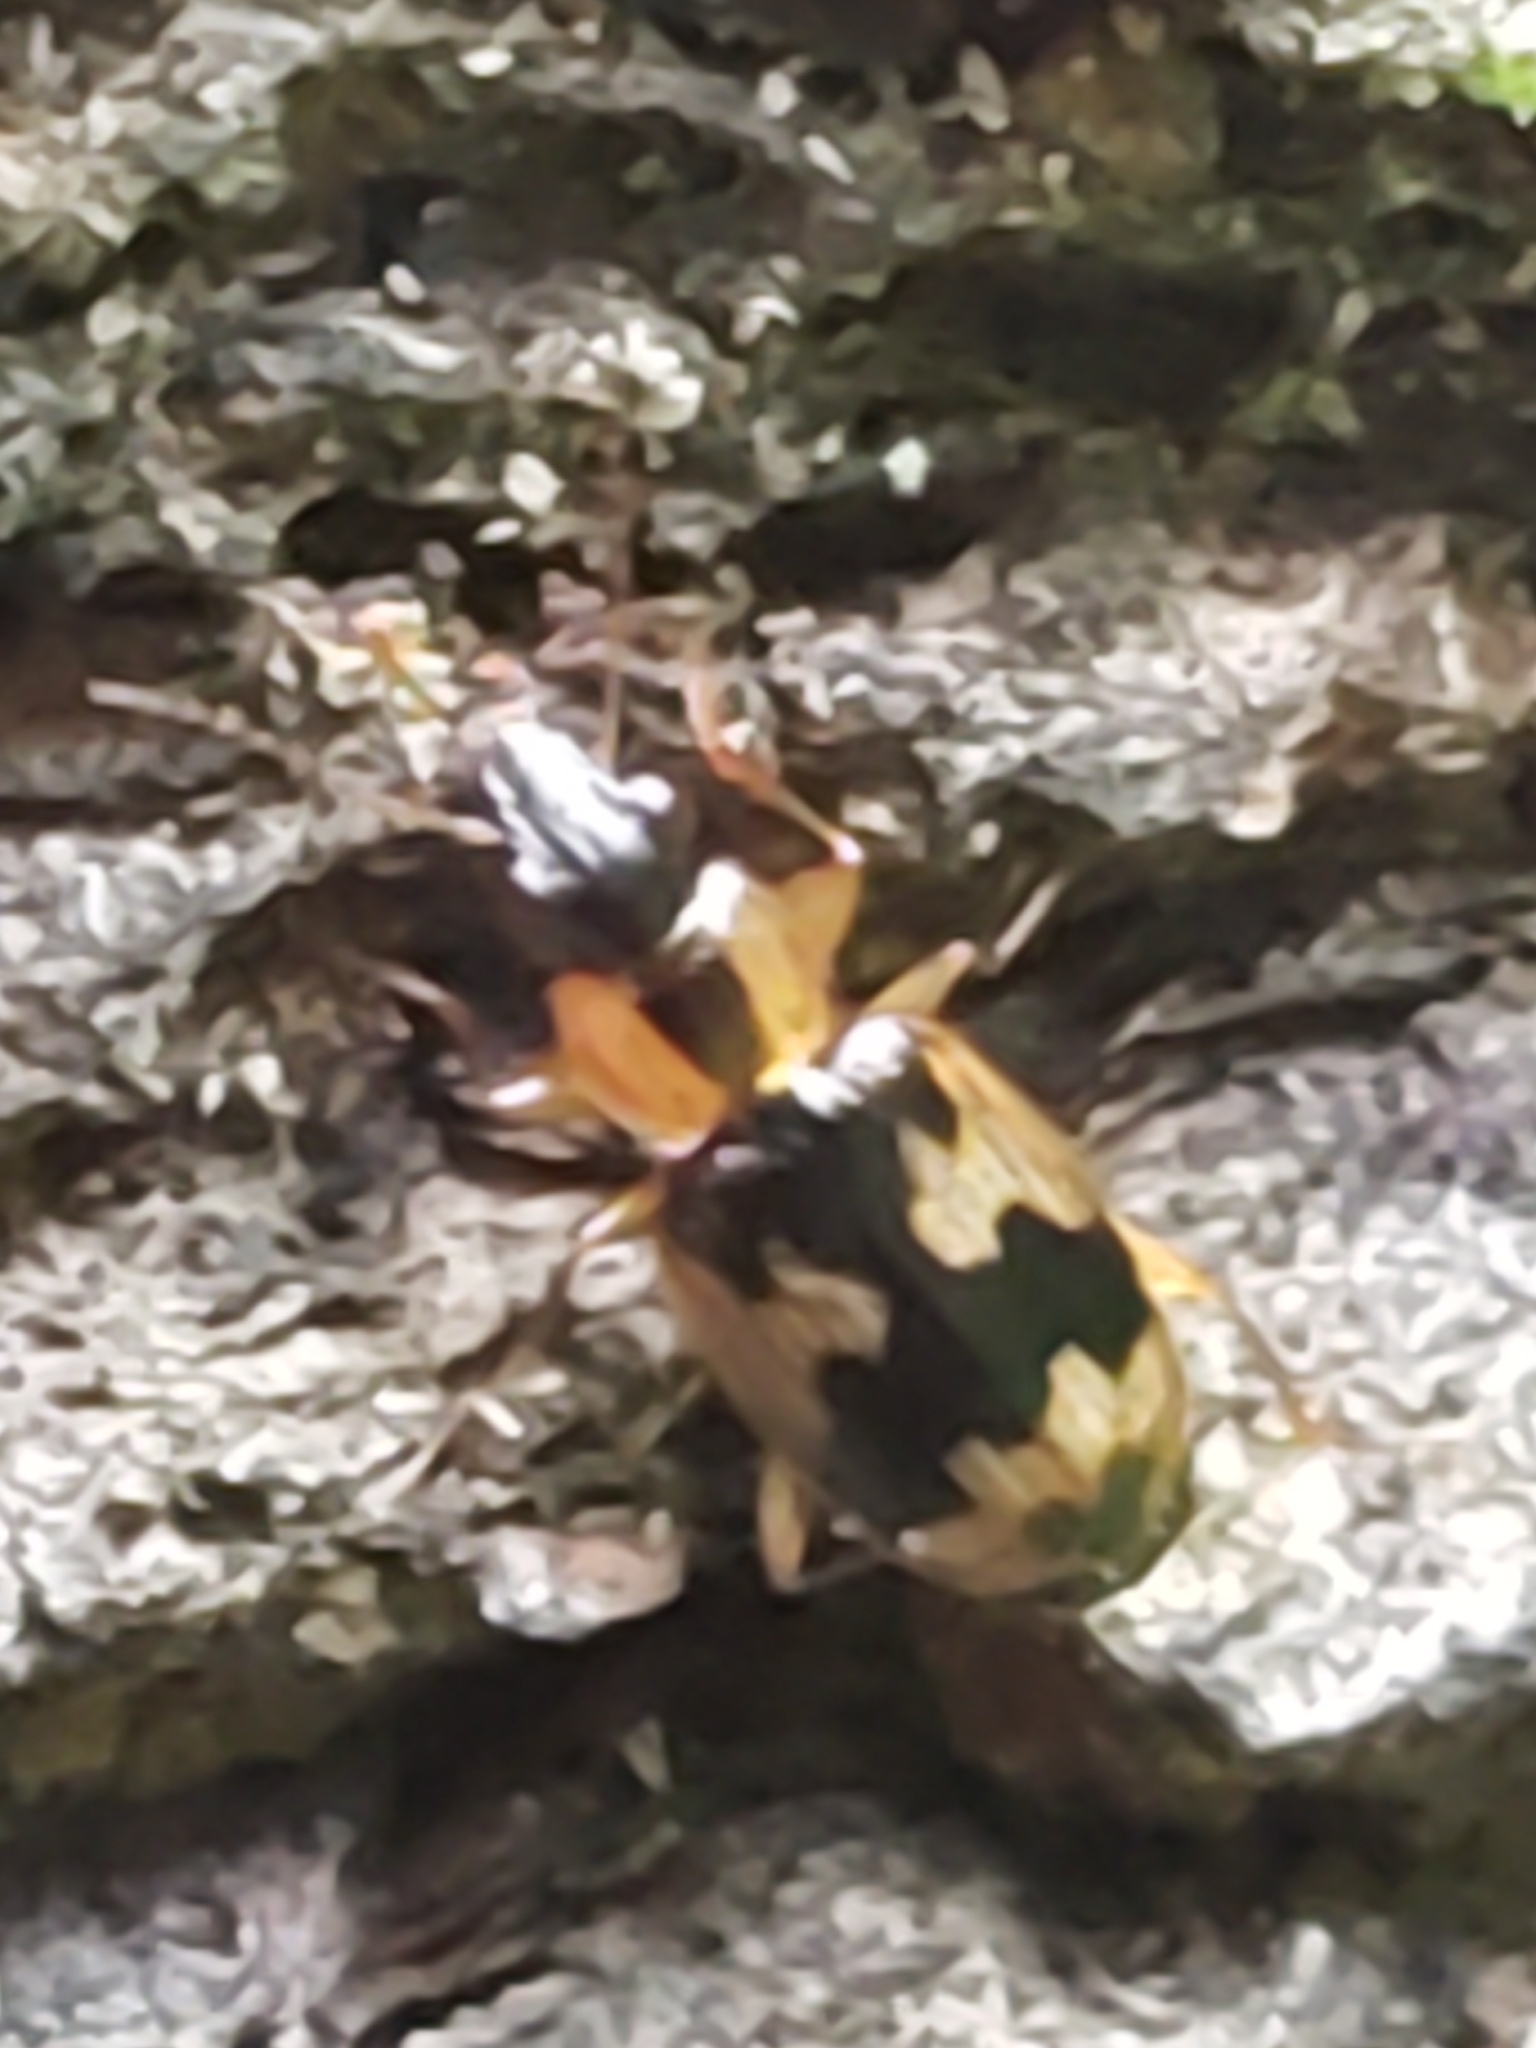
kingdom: Animalia
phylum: Arthropoda
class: Insecta
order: Coleoptera
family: Carabidae
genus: Phloeoxena
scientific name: Phloeoxena signata
